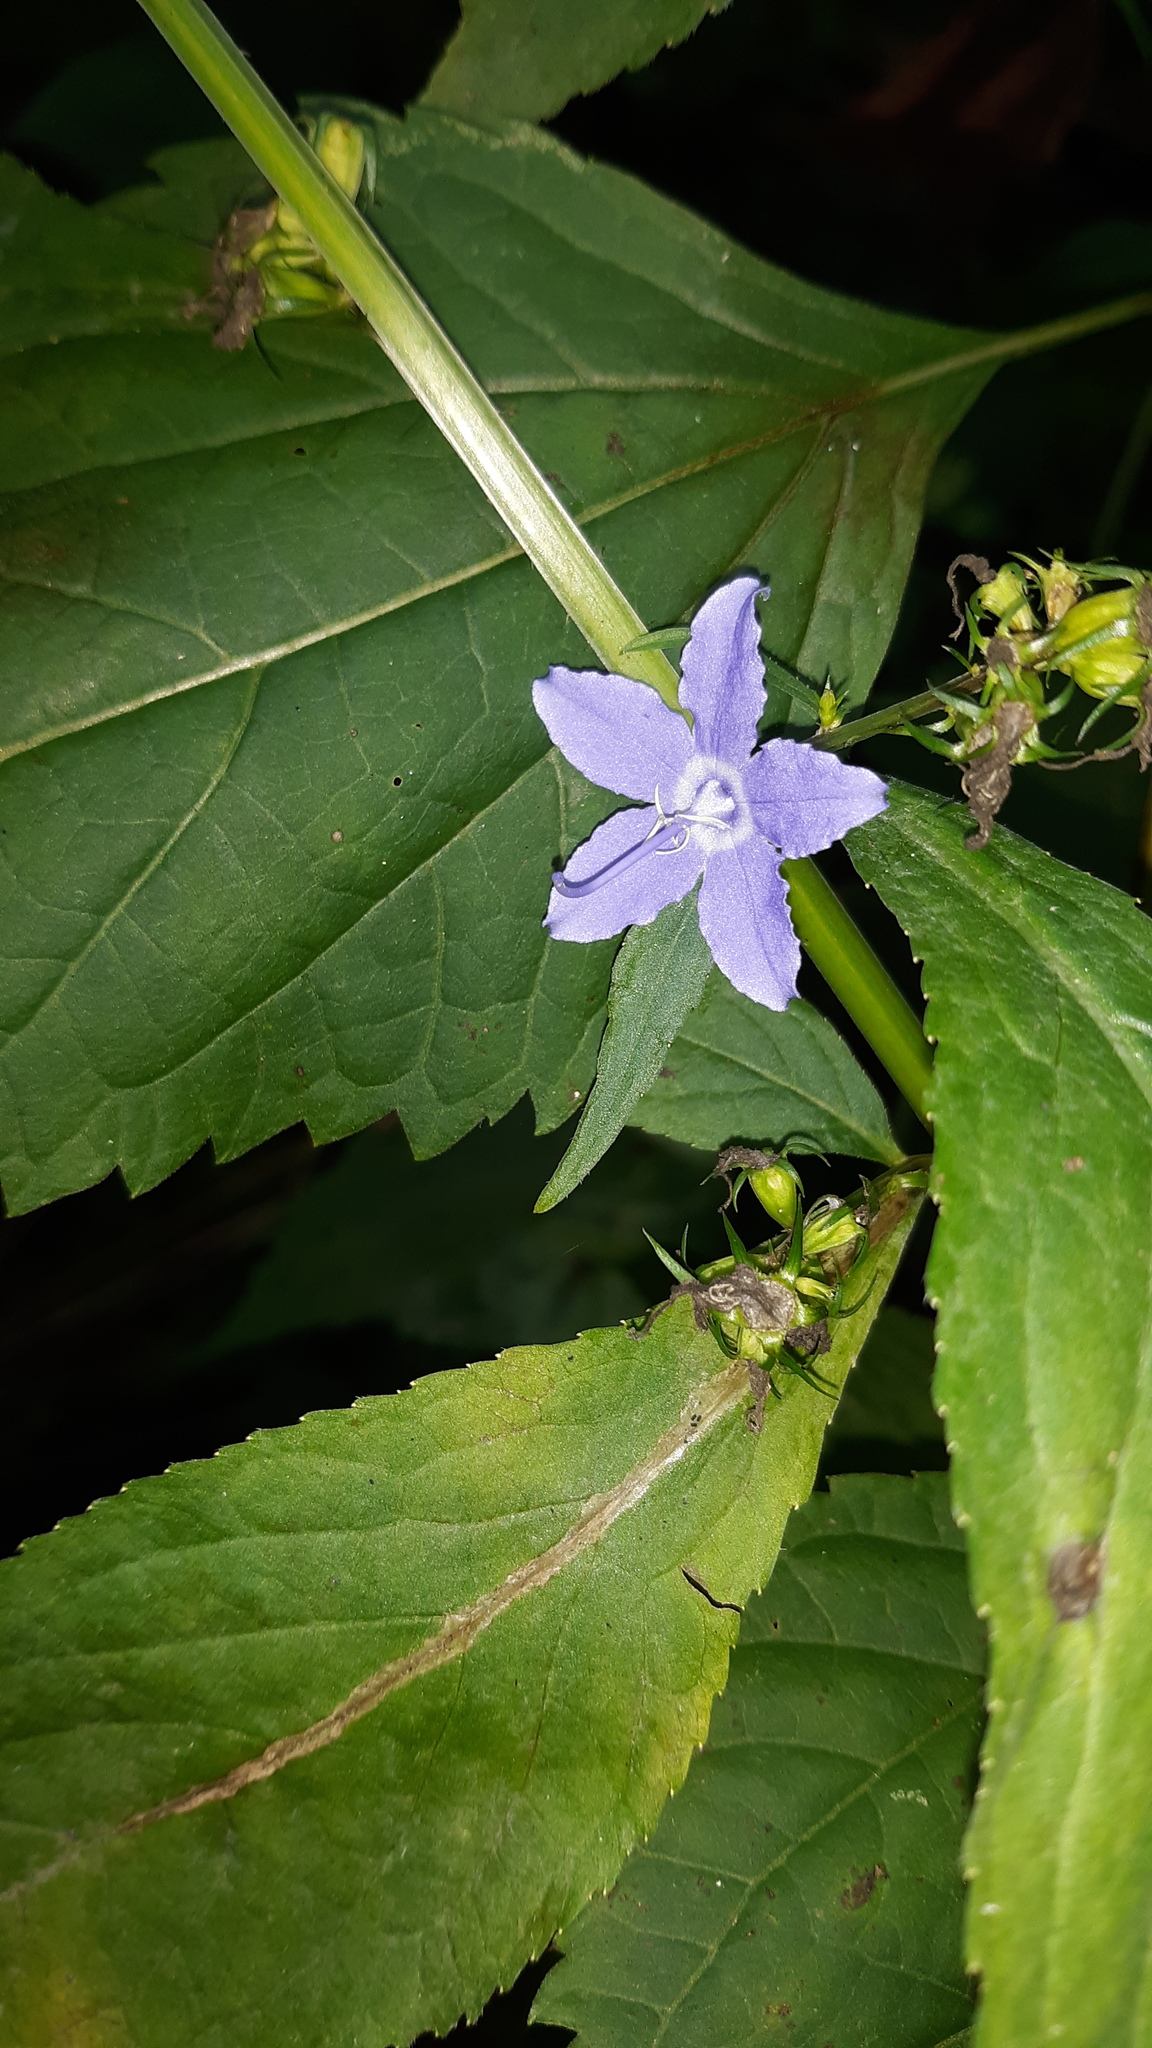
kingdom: Plantae
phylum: Tracheophyta
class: Magnoliopsida
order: Asterales
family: Campanulaceae
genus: Campanulastrum
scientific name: Campanulastrum americanum
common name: American bellflower
